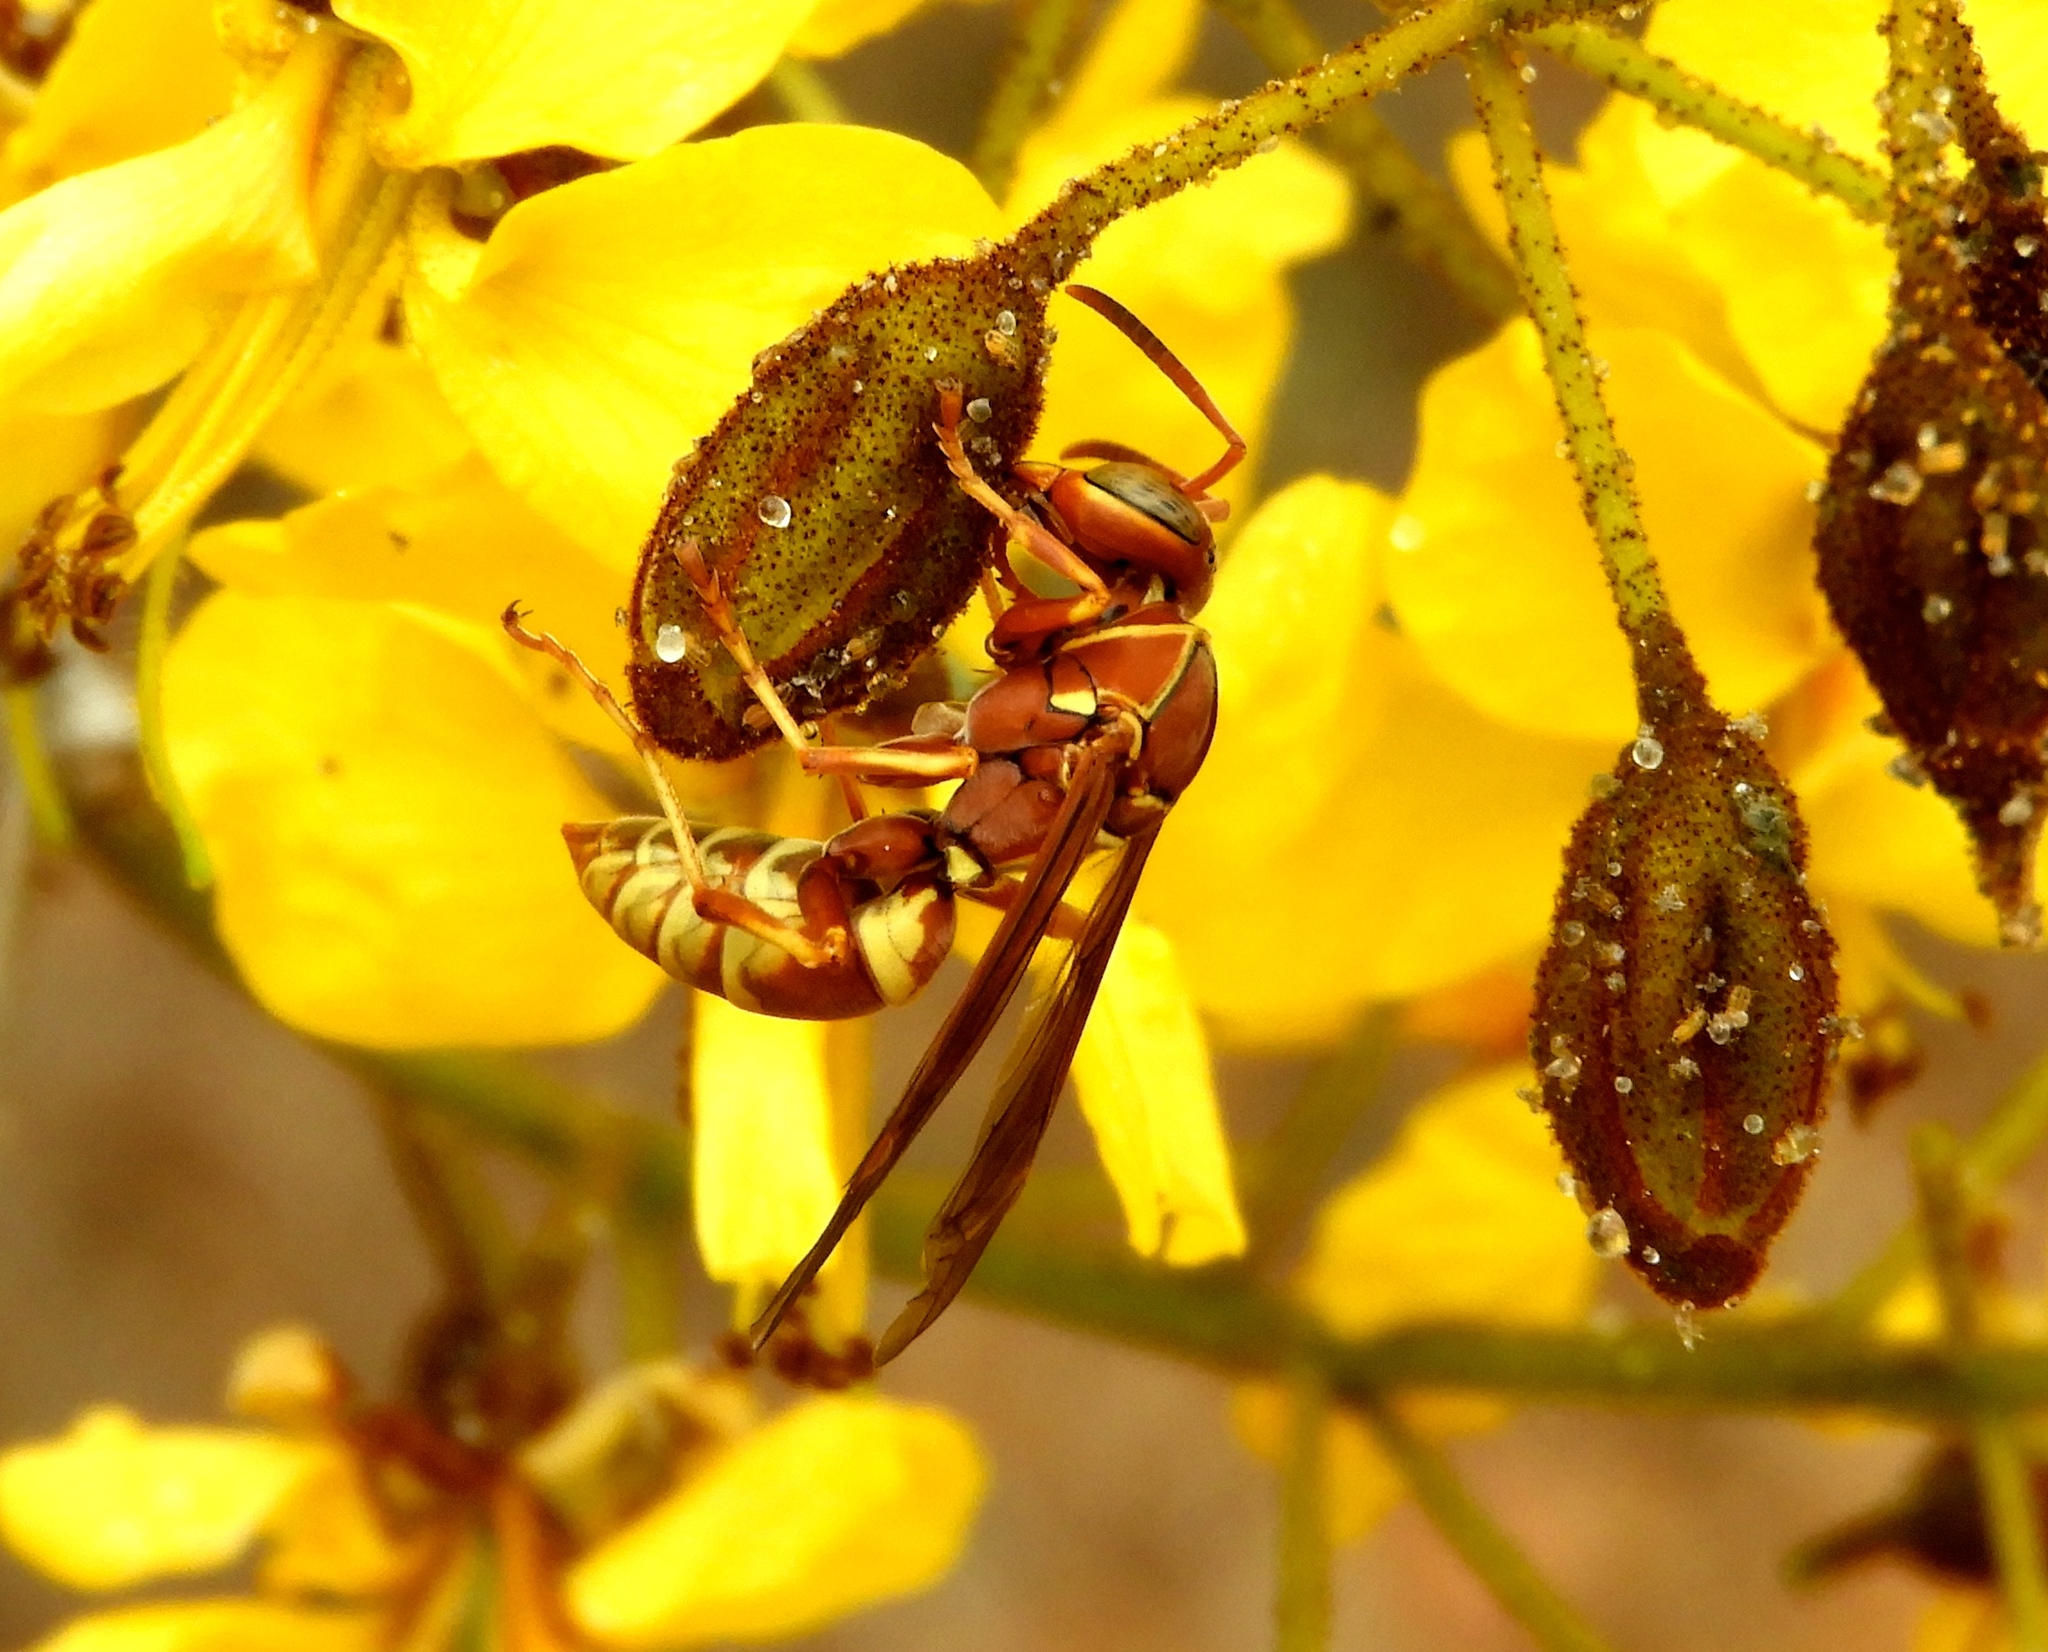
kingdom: Animalia
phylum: Arthropoda
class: Insecta
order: Hymenoptera
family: Eumenidae
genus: Polistes
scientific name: Polistes dorsalis
